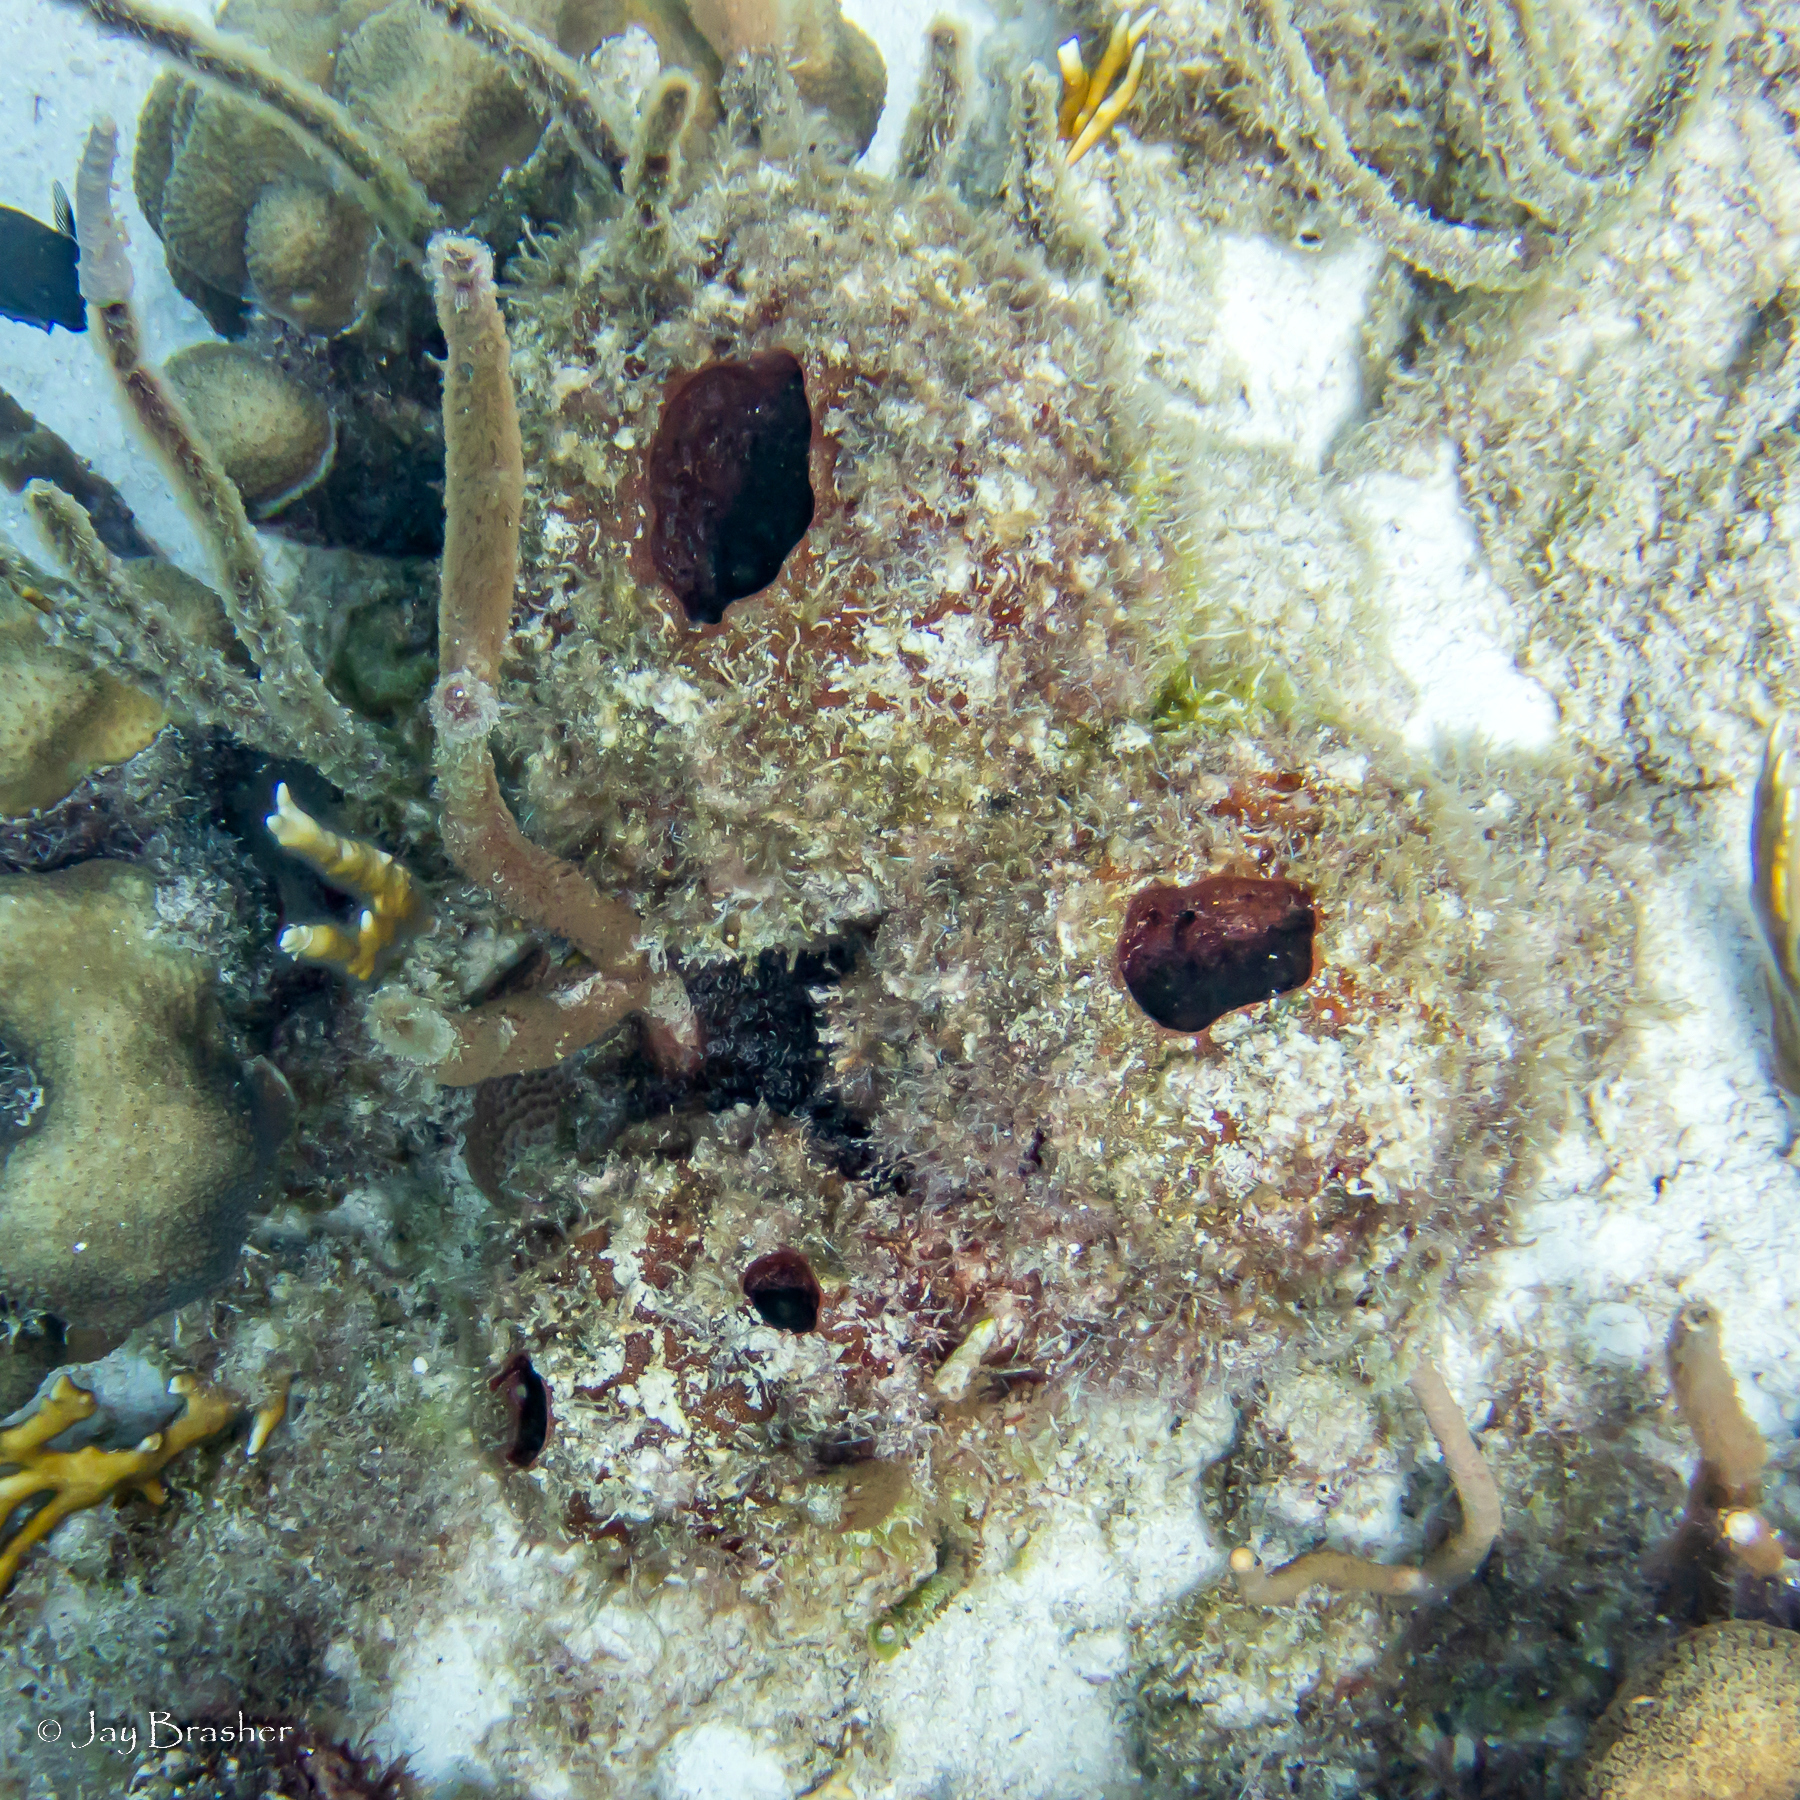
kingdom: Animalia
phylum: Porifera
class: Demospongiae
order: Biemnida
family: Biemnidae
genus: Neofibularia
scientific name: Neofibularia nolitangere
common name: Do-not-touch-me sponge
